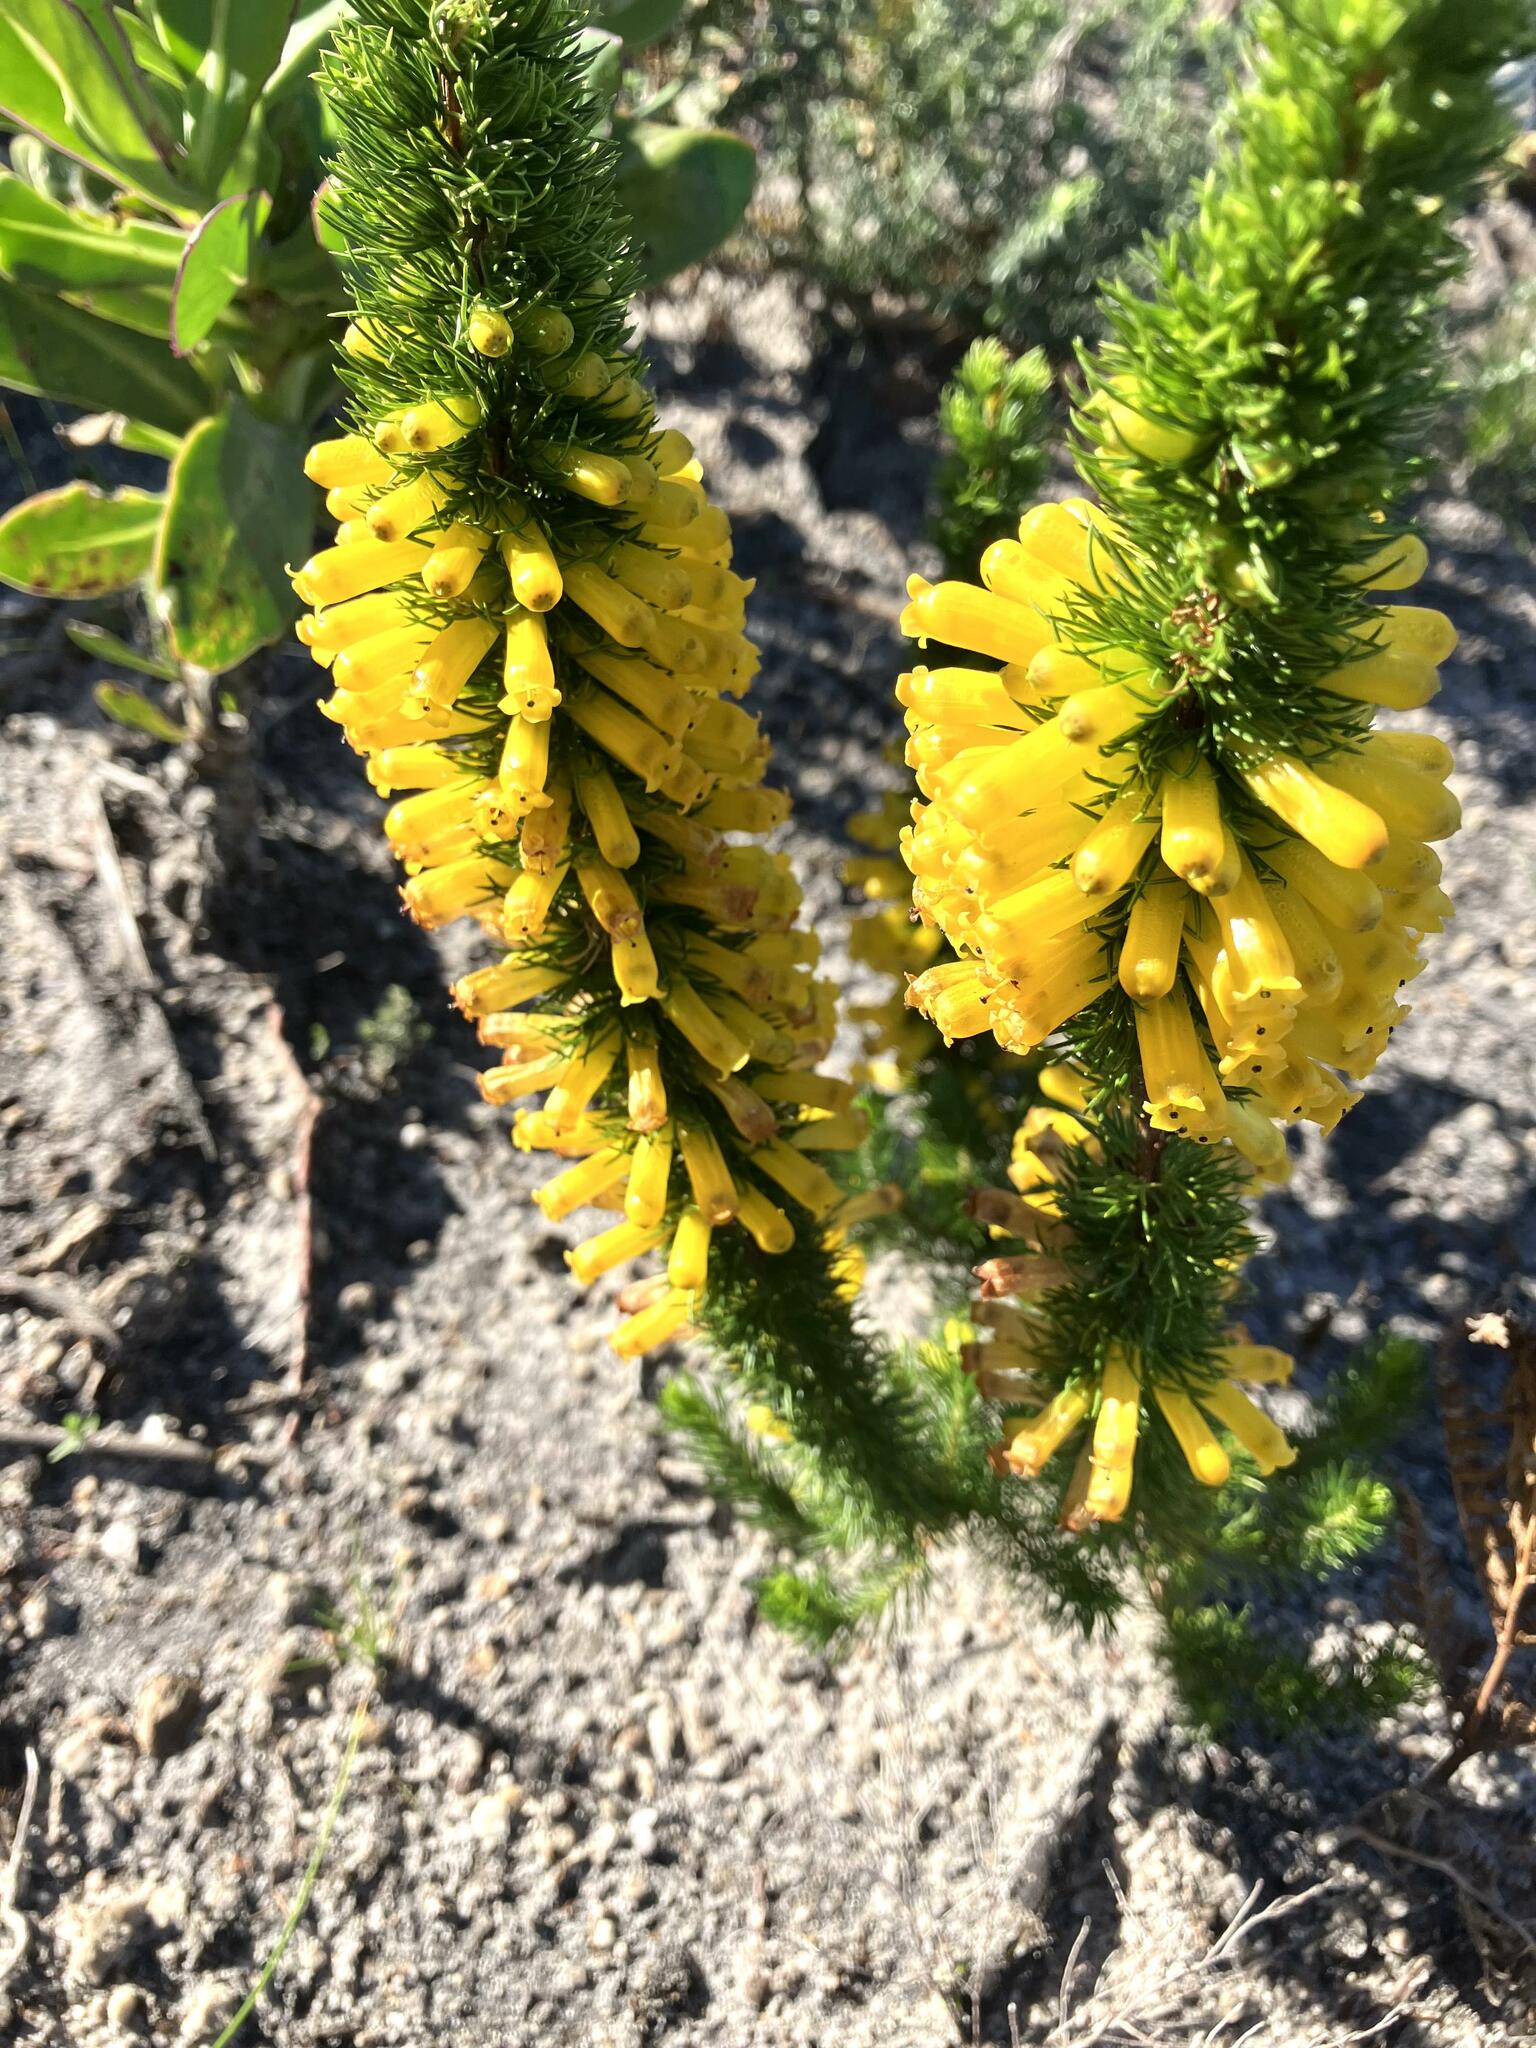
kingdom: Plantae
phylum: Tracheophyta
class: Magnoliopsida
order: Ericales
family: Ericaceae
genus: Erica
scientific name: Erica patersonia
